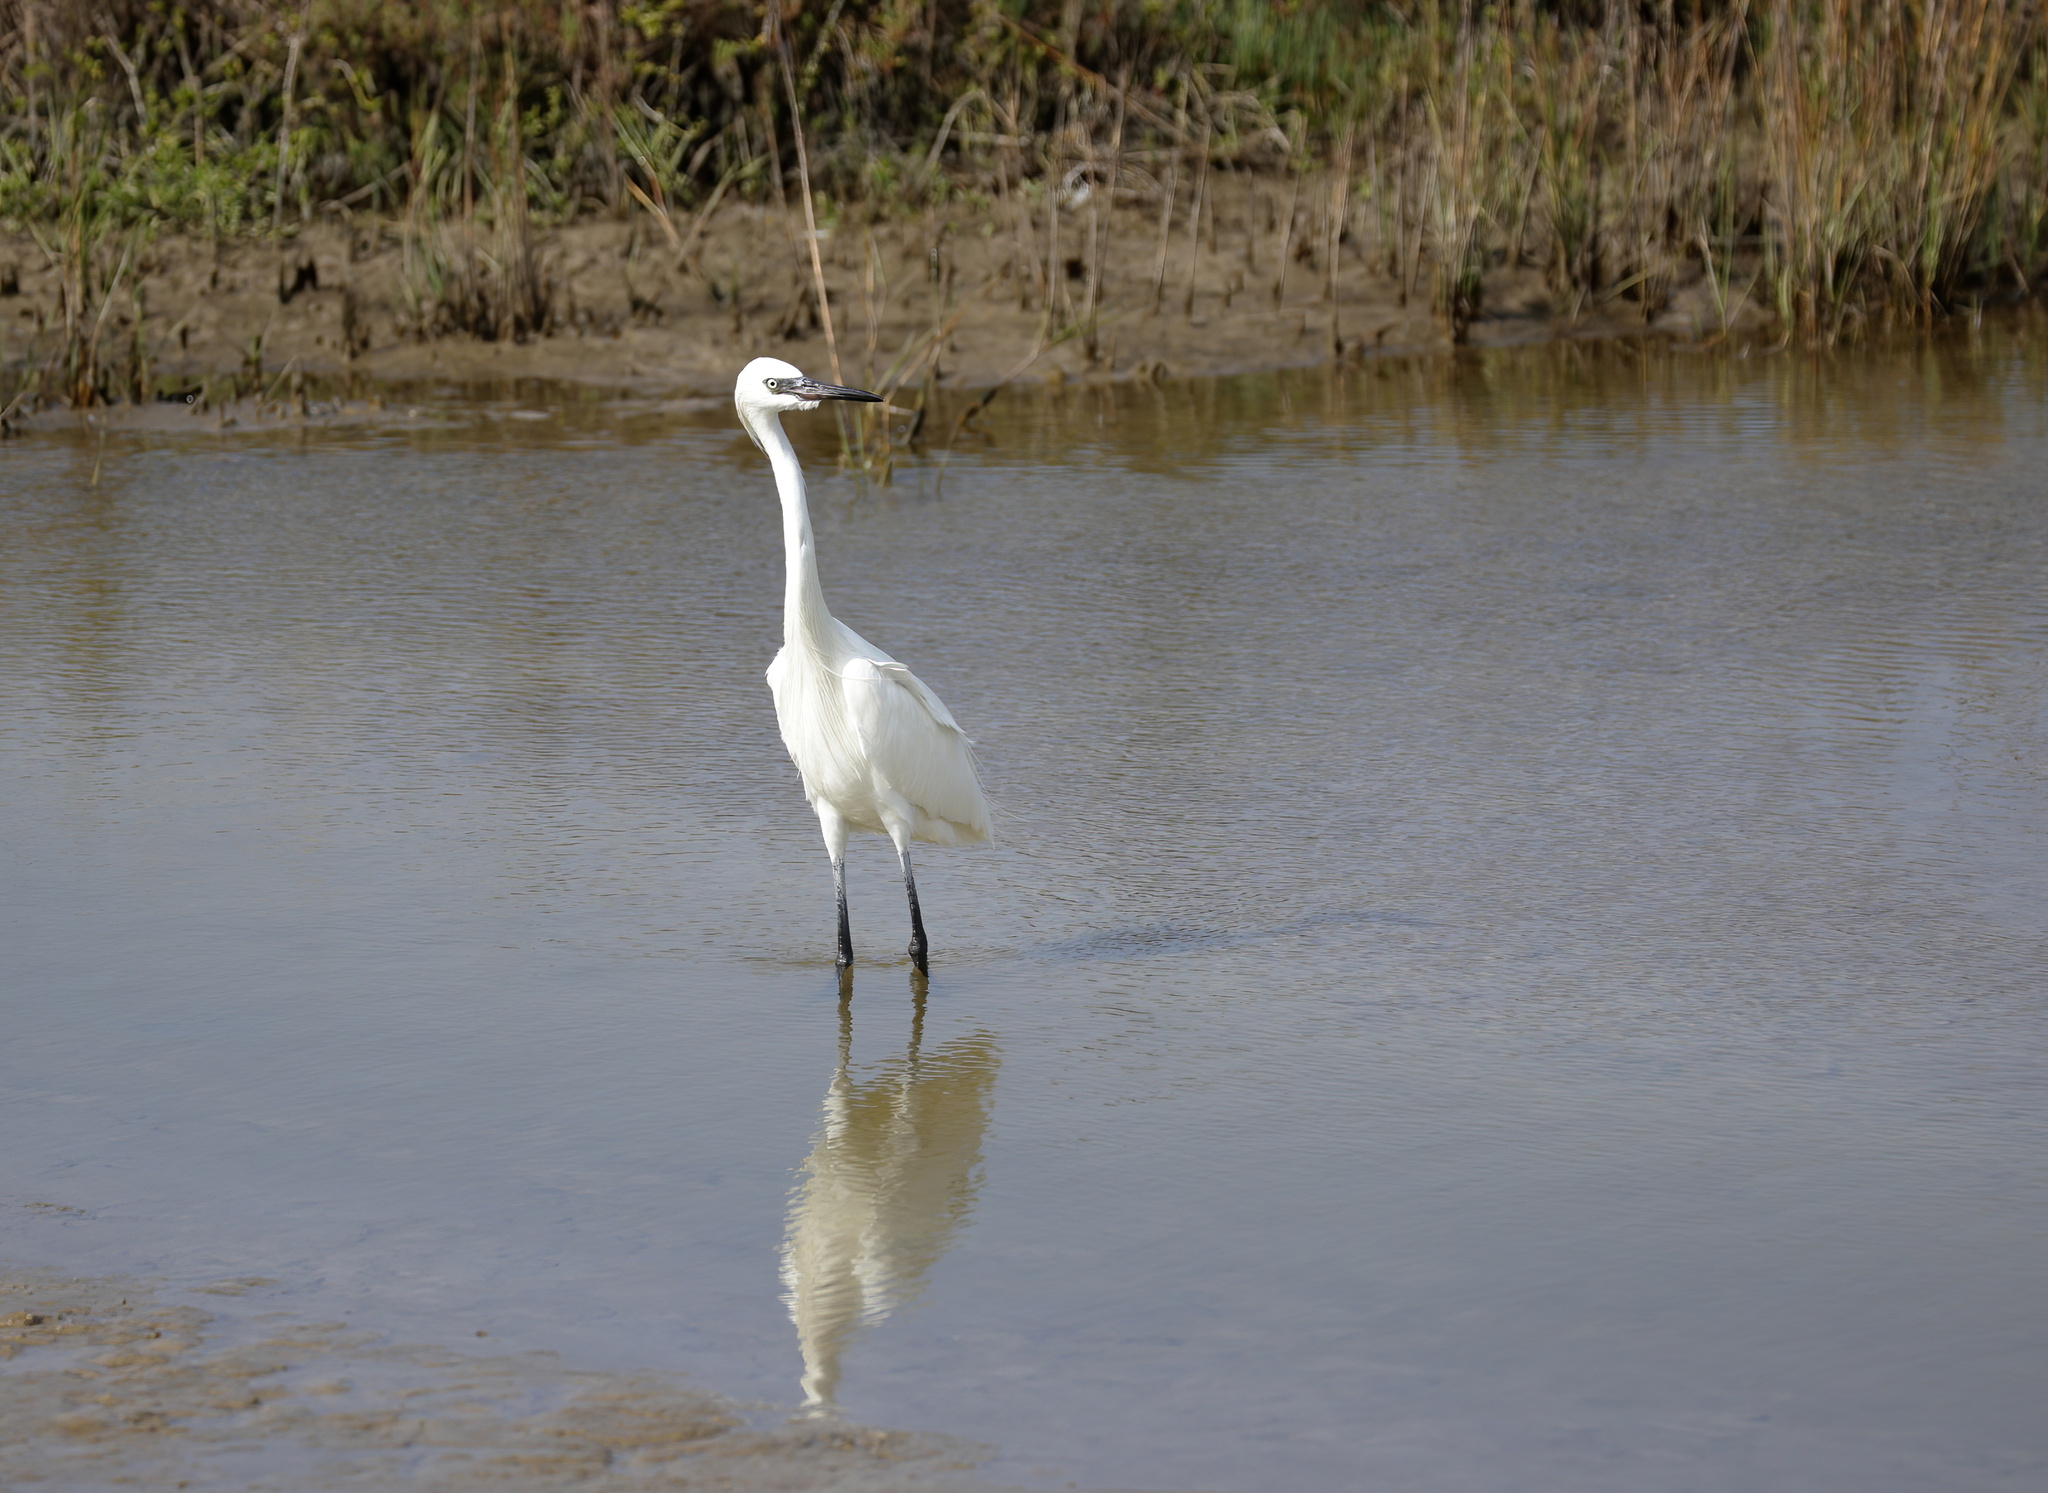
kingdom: Animalia
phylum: Chordata
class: Aves
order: Pelecaniformes
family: Ardeidae
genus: Egretta
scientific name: Egretta rufescens
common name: Reddish egret
